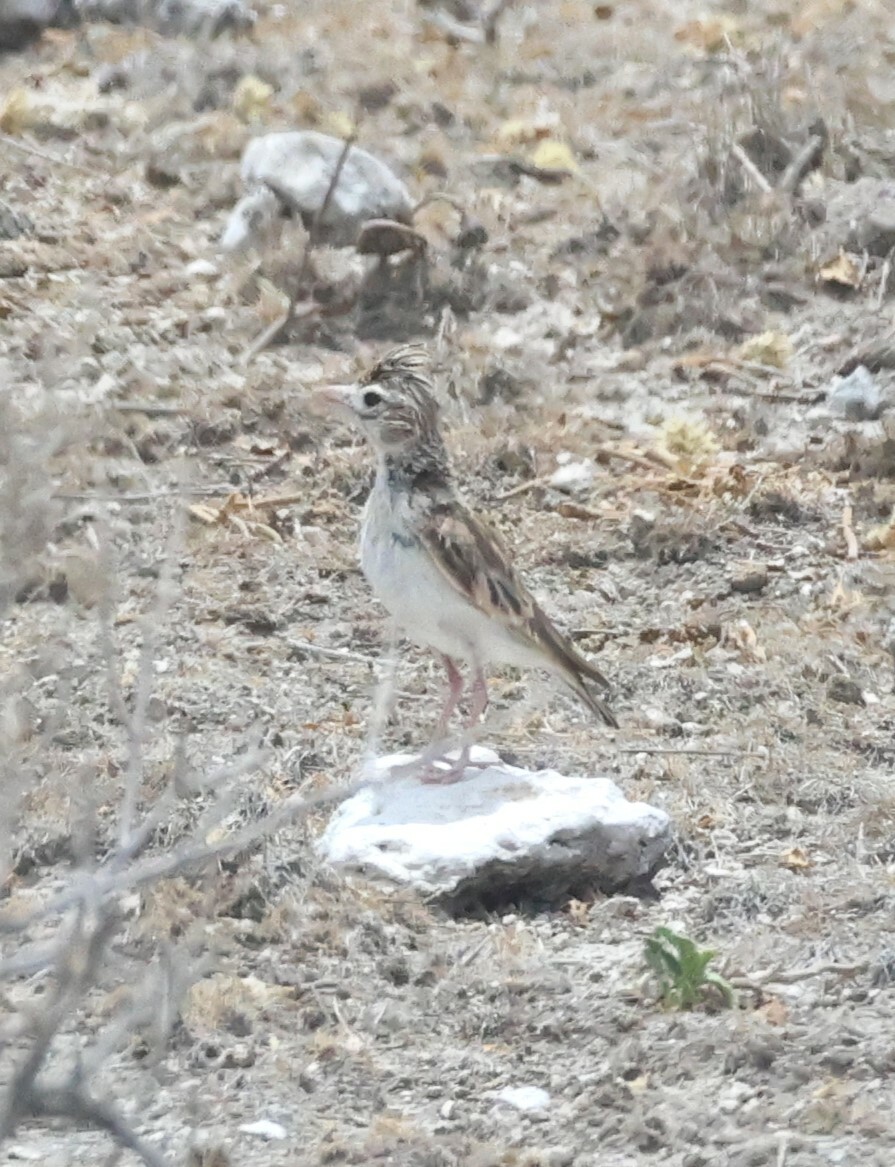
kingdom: Animalia
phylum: Chordata
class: Aves
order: Passeriformes
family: Alaudidae
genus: Spizocorys
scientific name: Spizocorys starki
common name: Stark's lark
